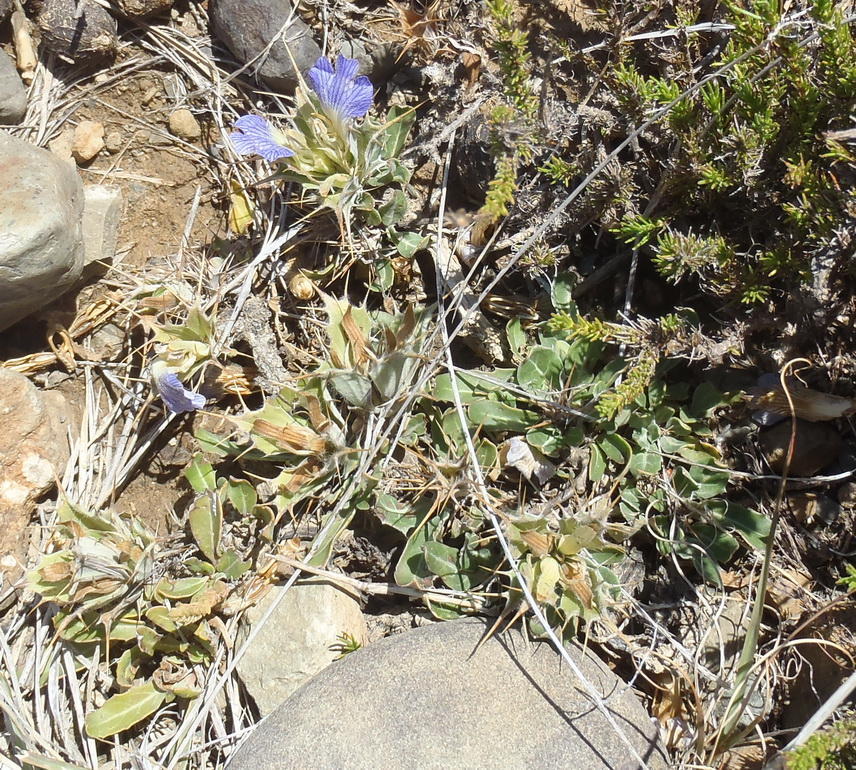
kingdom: Plantae
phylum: Tracheophyta
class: Magnoliopsida
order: Lamiales
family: Acanthaceae
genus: Blepharis
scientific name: Blepharis mitrata
